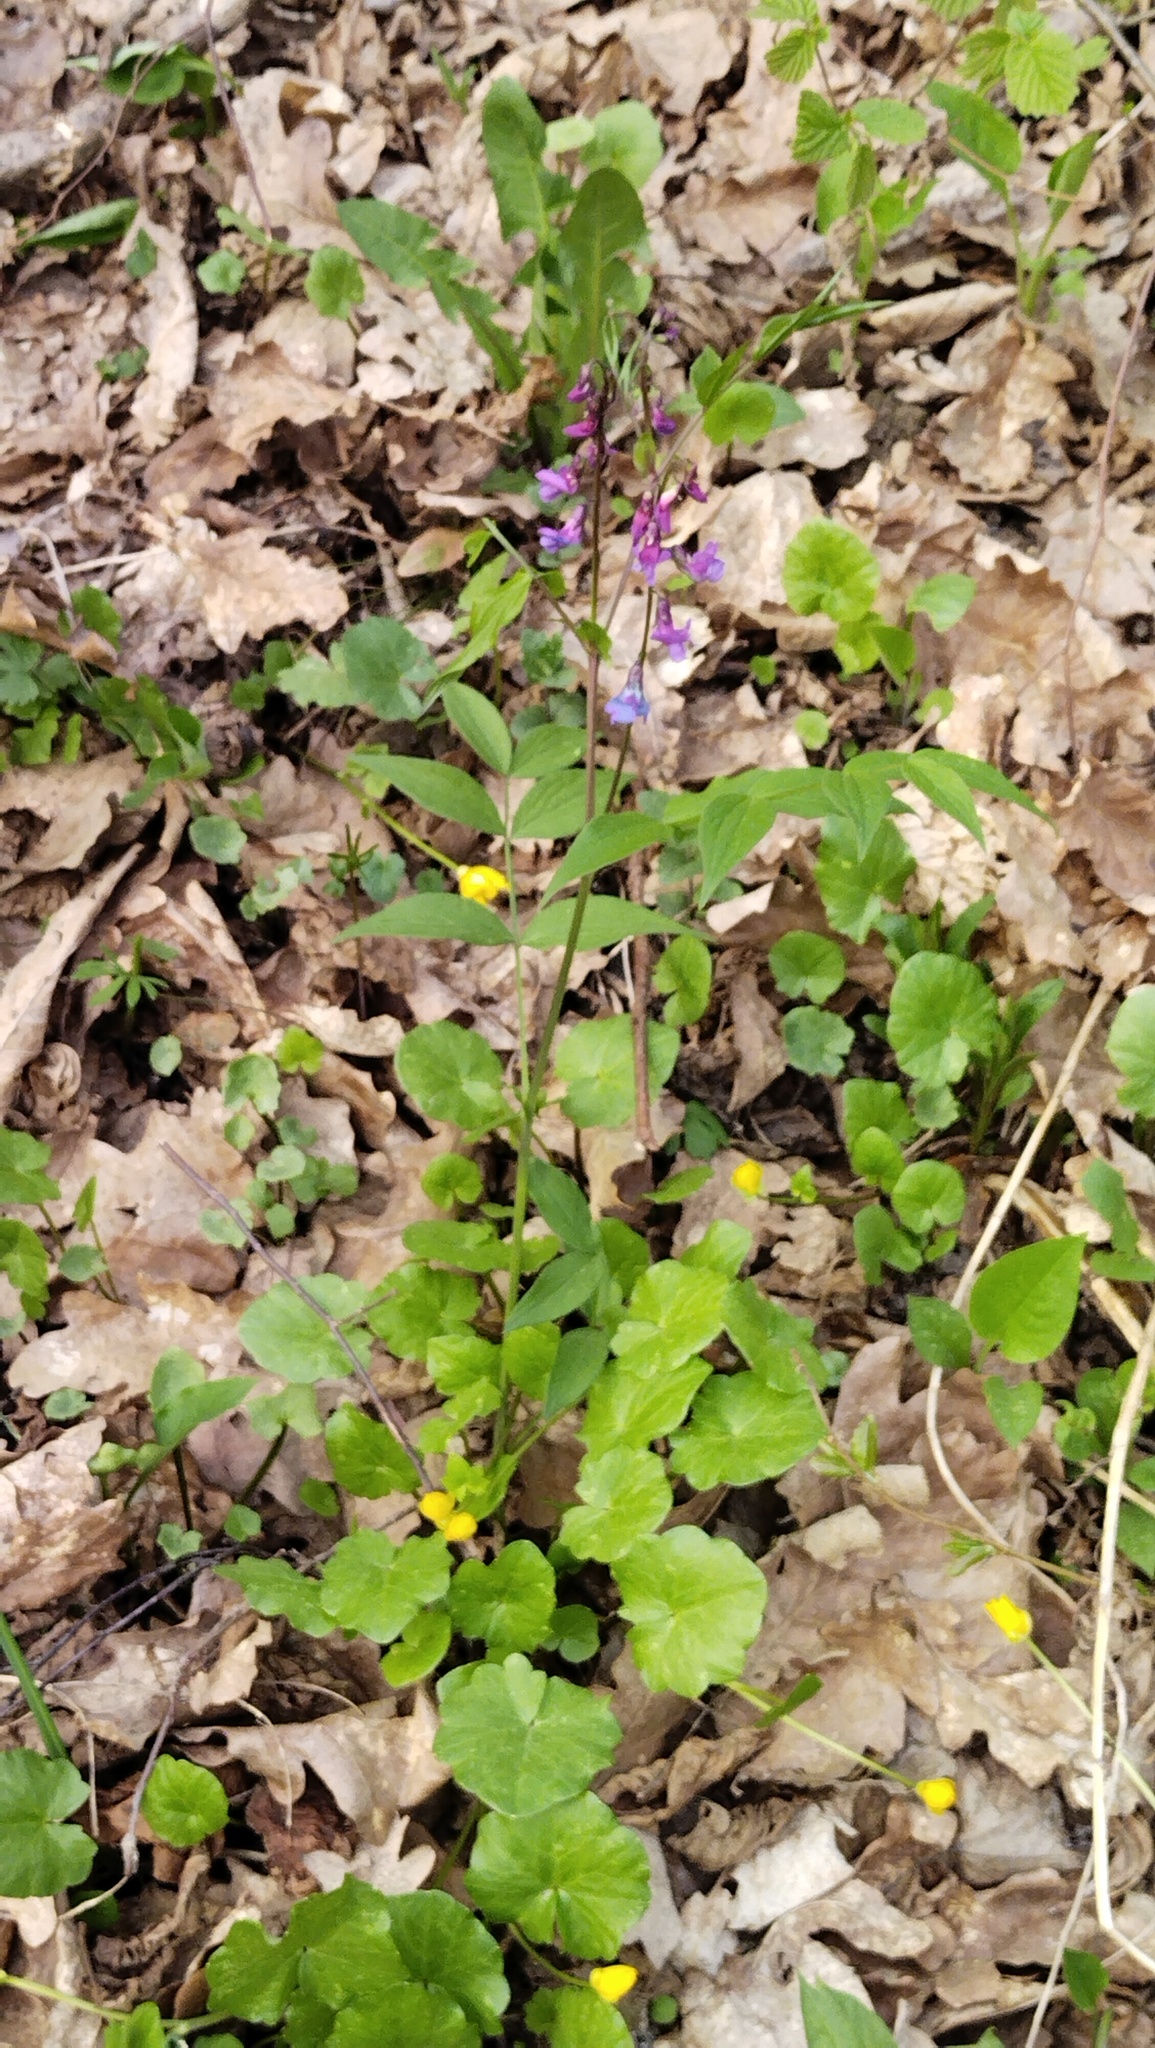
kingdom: Plantae
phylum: Tracheophyta
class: Magnoliopsida
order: Fabales
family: Fabaceae
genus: Lathyrus
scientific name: Lathyrus vernus
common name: Spring pea
